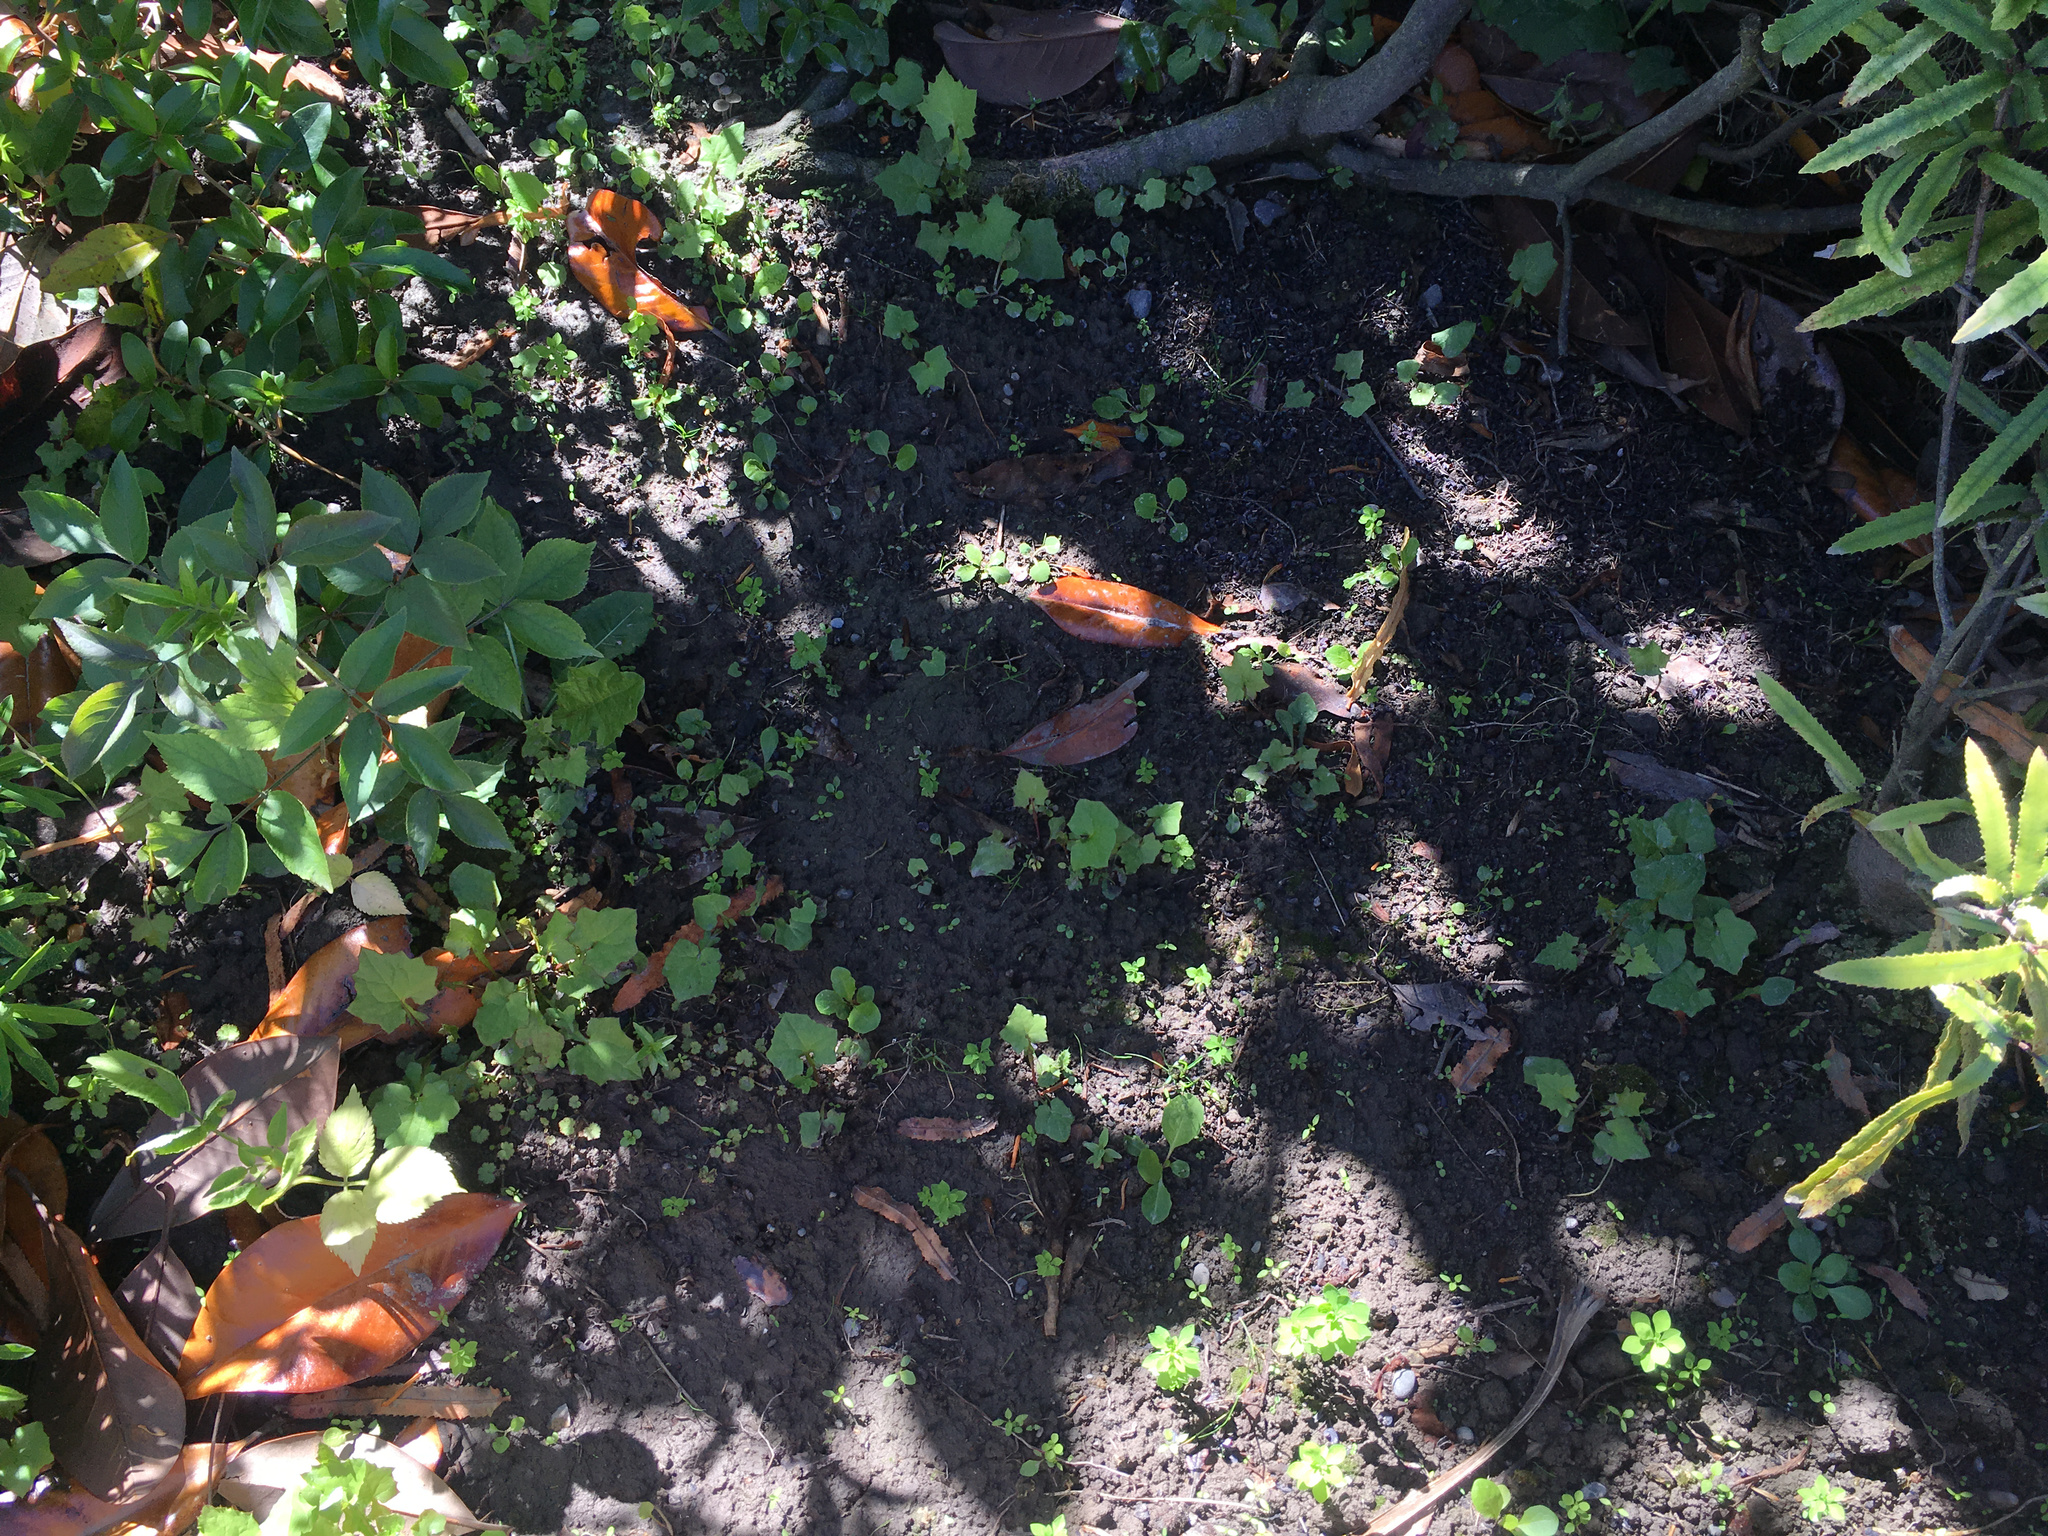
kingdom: Plantae
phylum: Tracheophyta
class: Magnoliopsida
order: Asterales
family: Asteraceae
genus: Mycelis
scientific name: Mycelis muralis
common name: Wall lettuce
